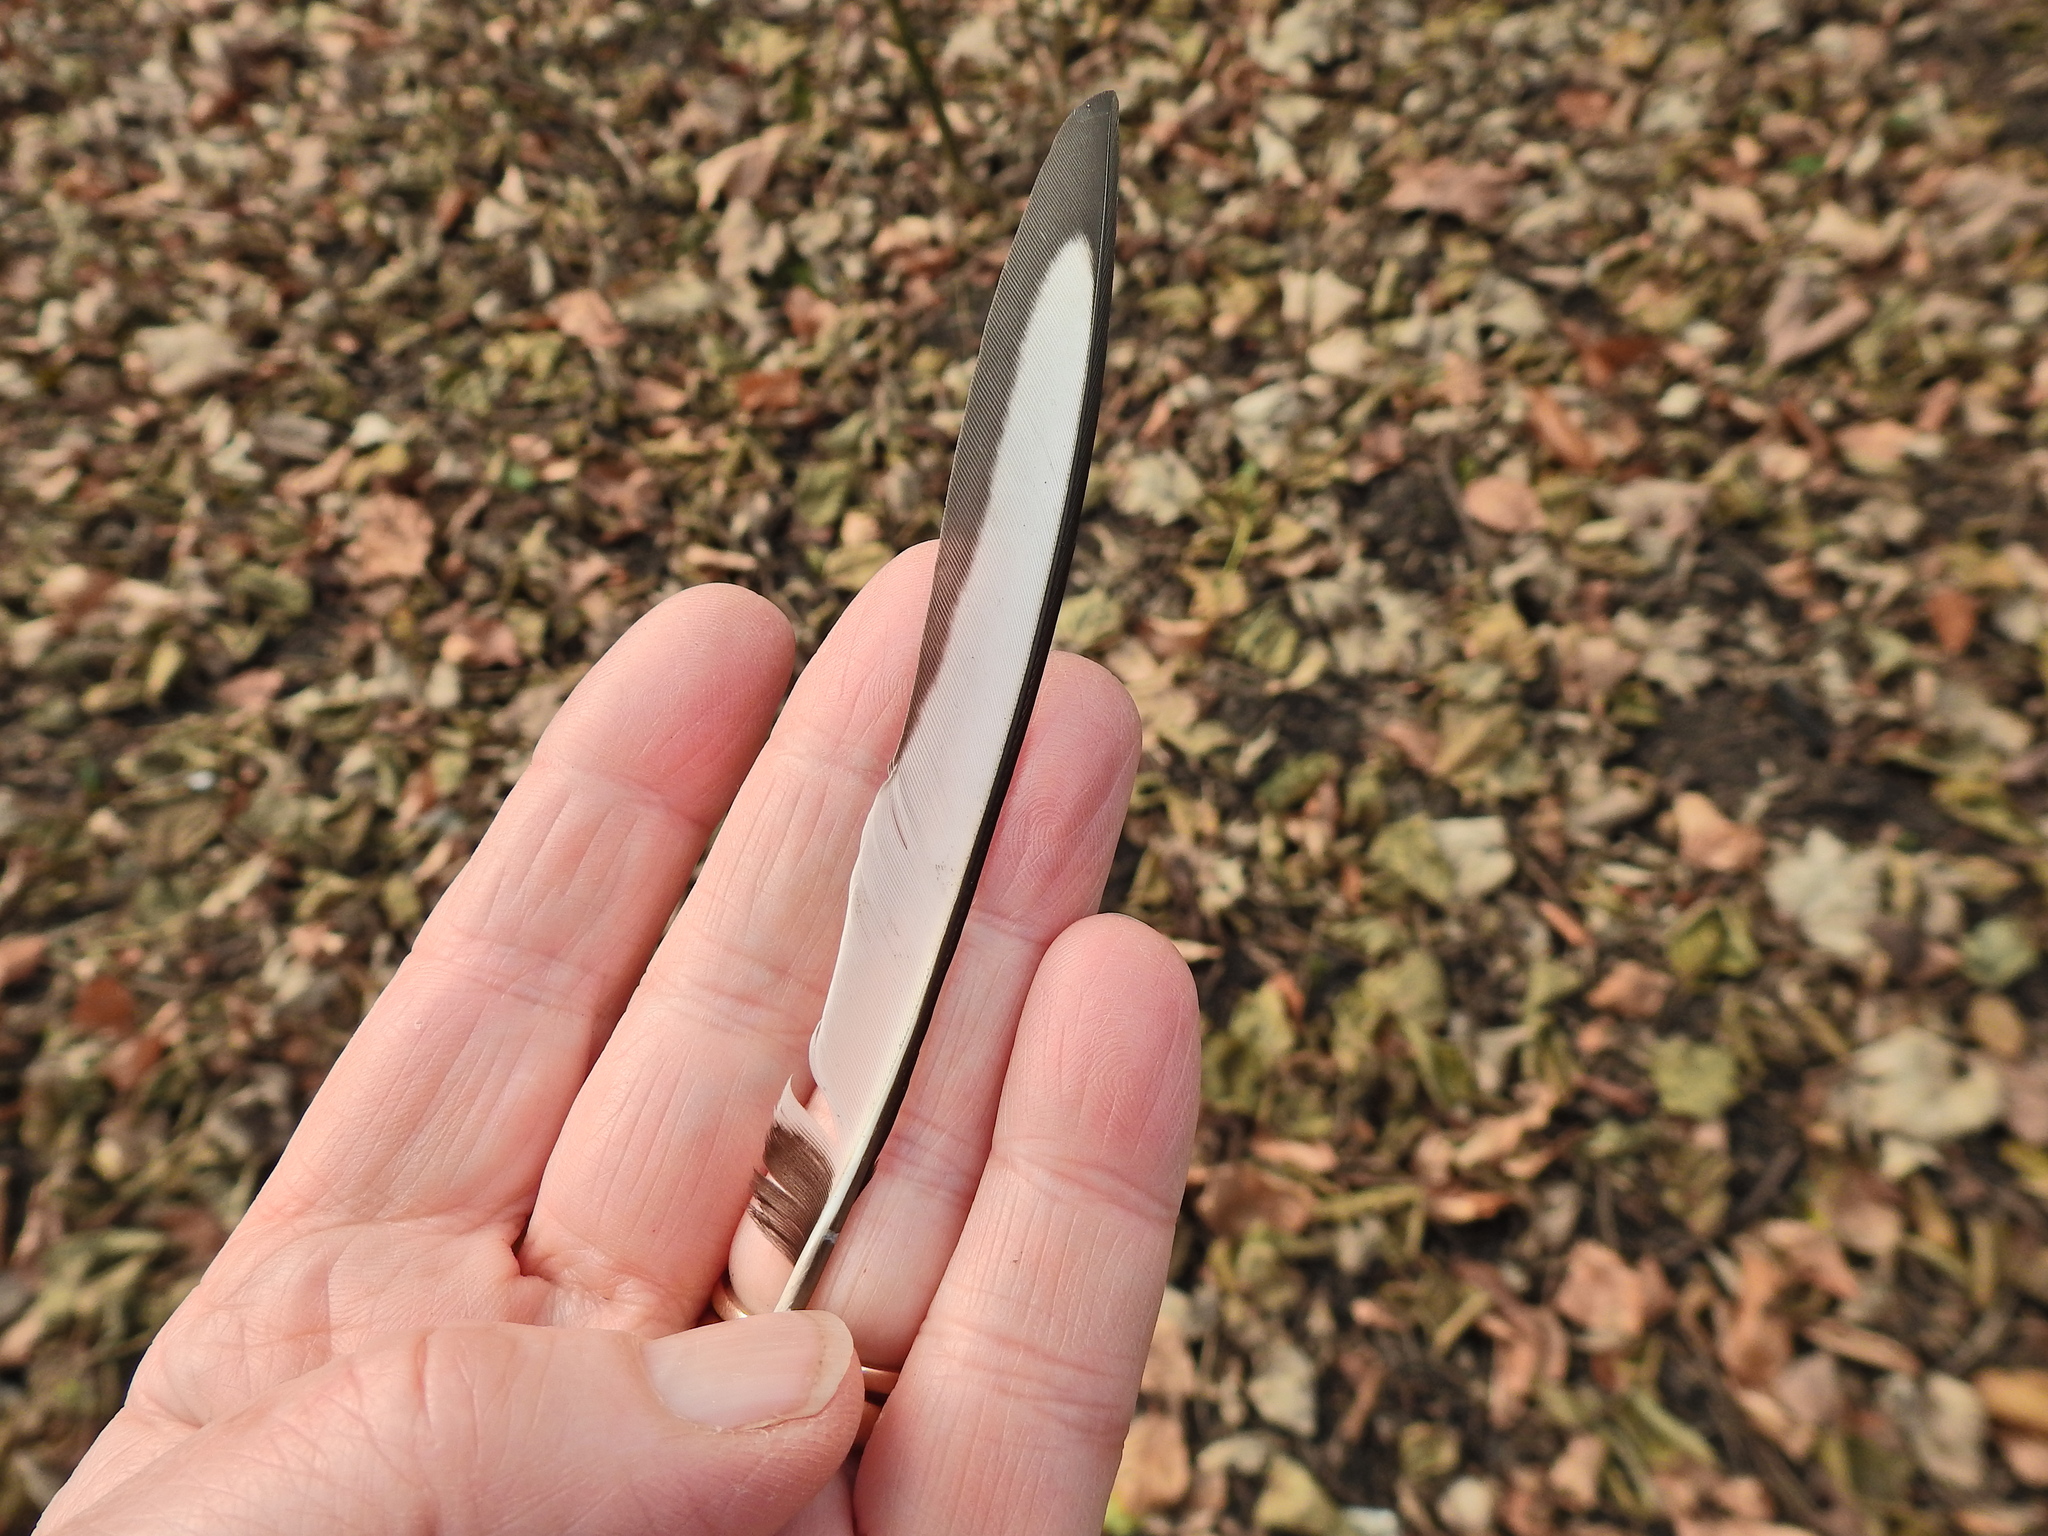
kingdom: Animalia
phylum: Chordata
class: Aves
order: Passeriformes
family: Corvidae
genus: Pica
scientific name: Pica pica
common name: Eurasian magpie
